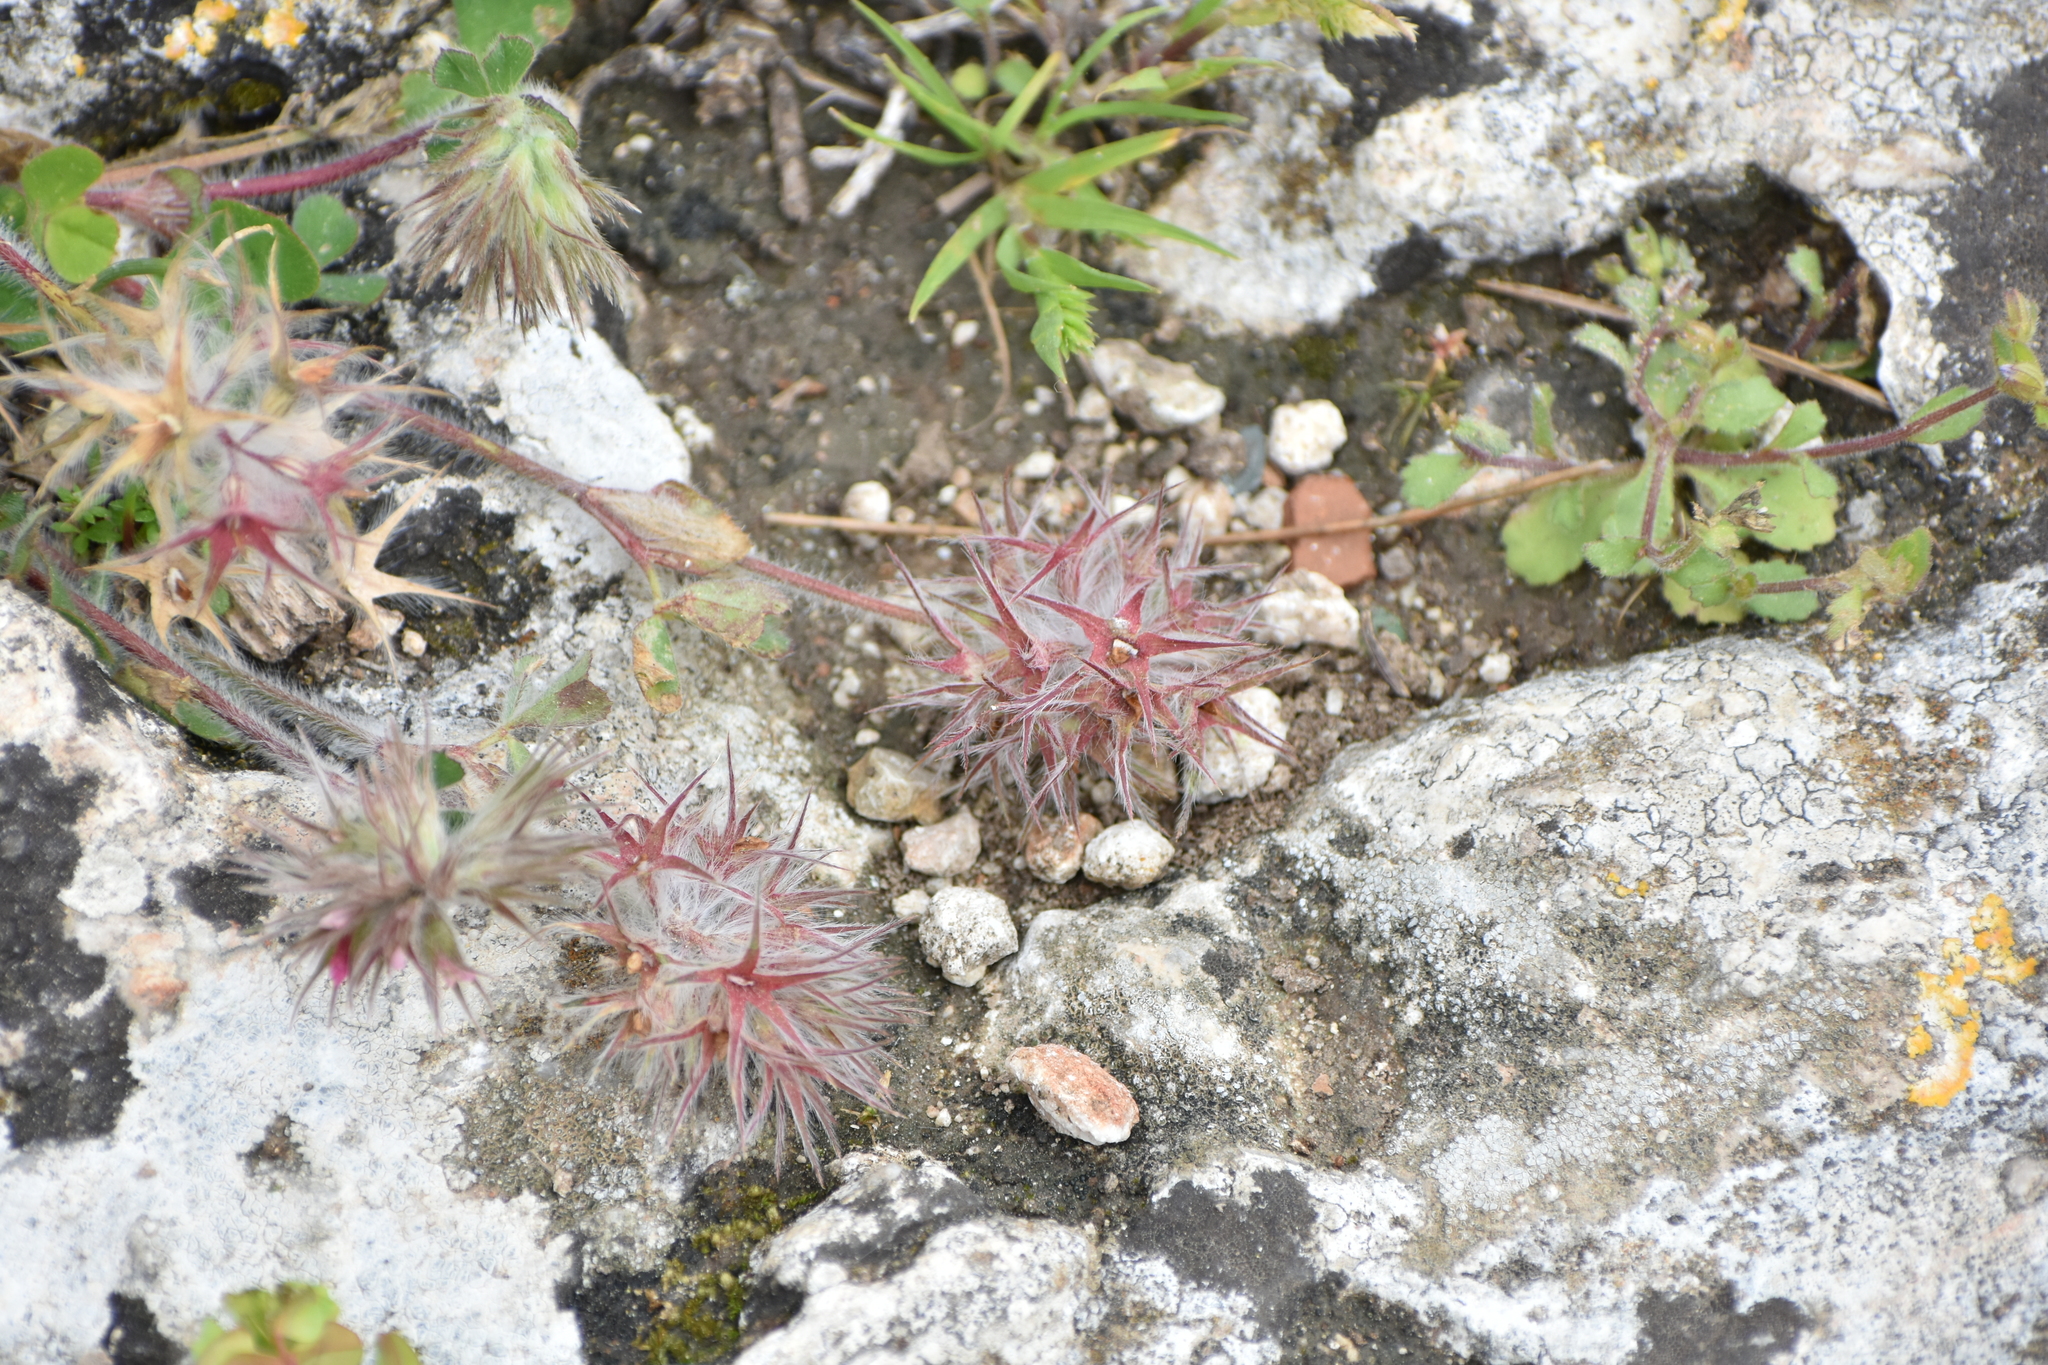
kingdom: Plantae
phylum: Tracheophyta
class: Magnoliopsida
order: Fabales
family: Fabaceae
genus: Trifolium
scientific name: Trifolium stellatum
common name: Starry clover
